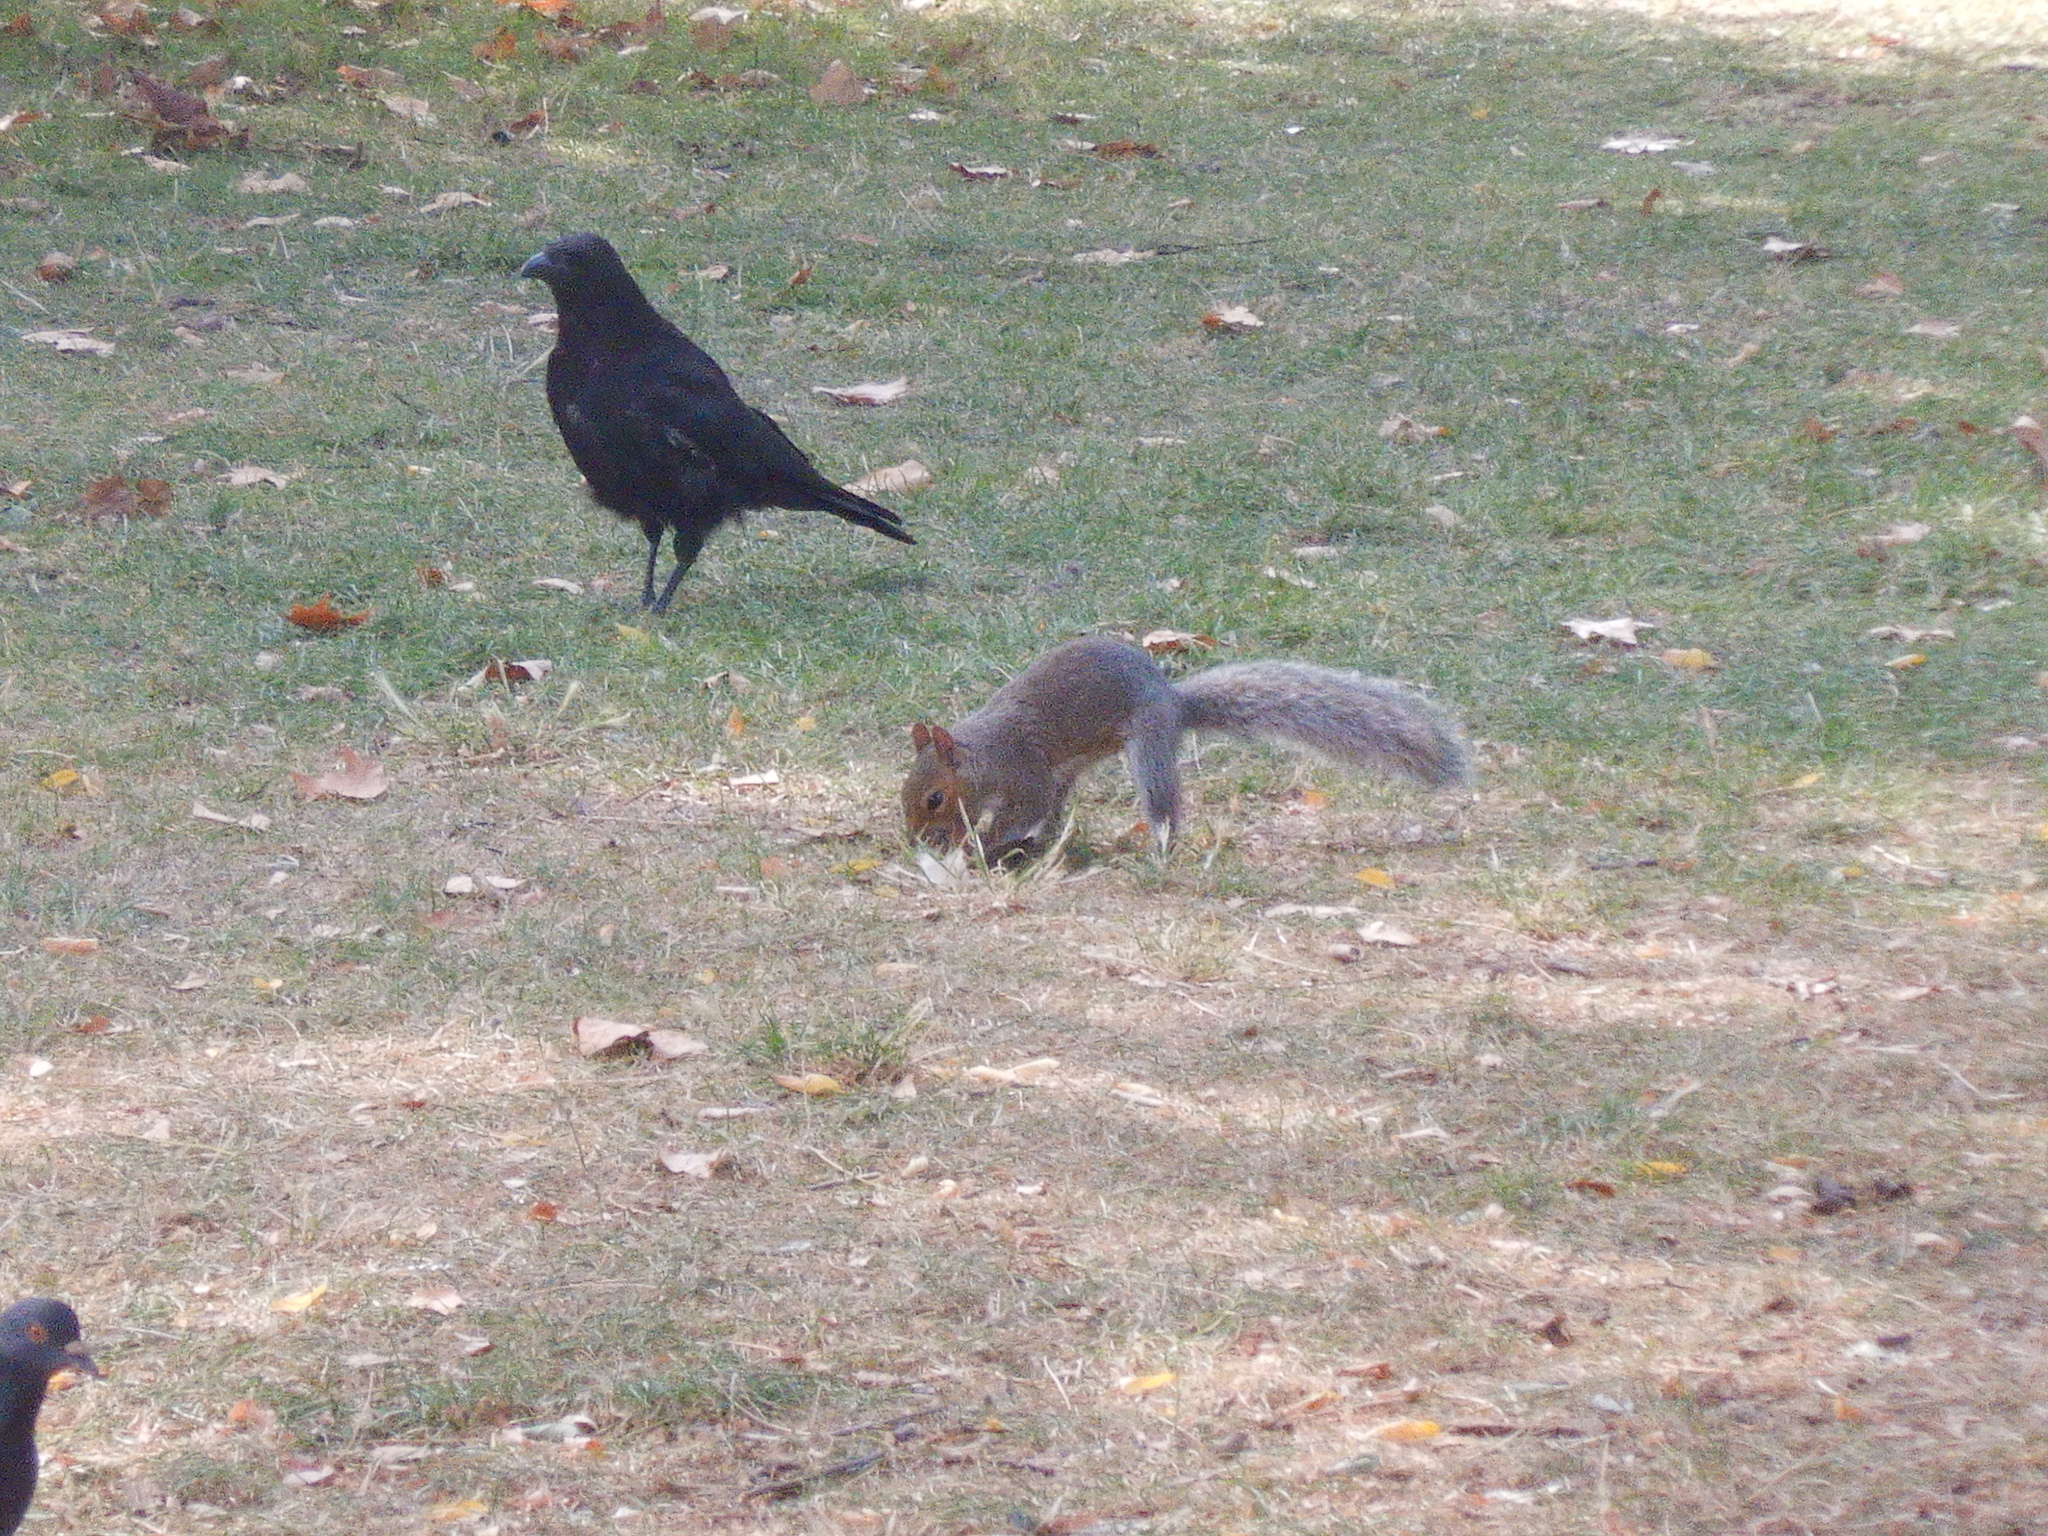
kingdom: Animalia
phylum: Chordata
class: Mammalia
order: Rodentia
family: Sciuridae
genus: Sciurus
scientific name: Sciurus carolinensis
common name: Eastern gray squirrel
